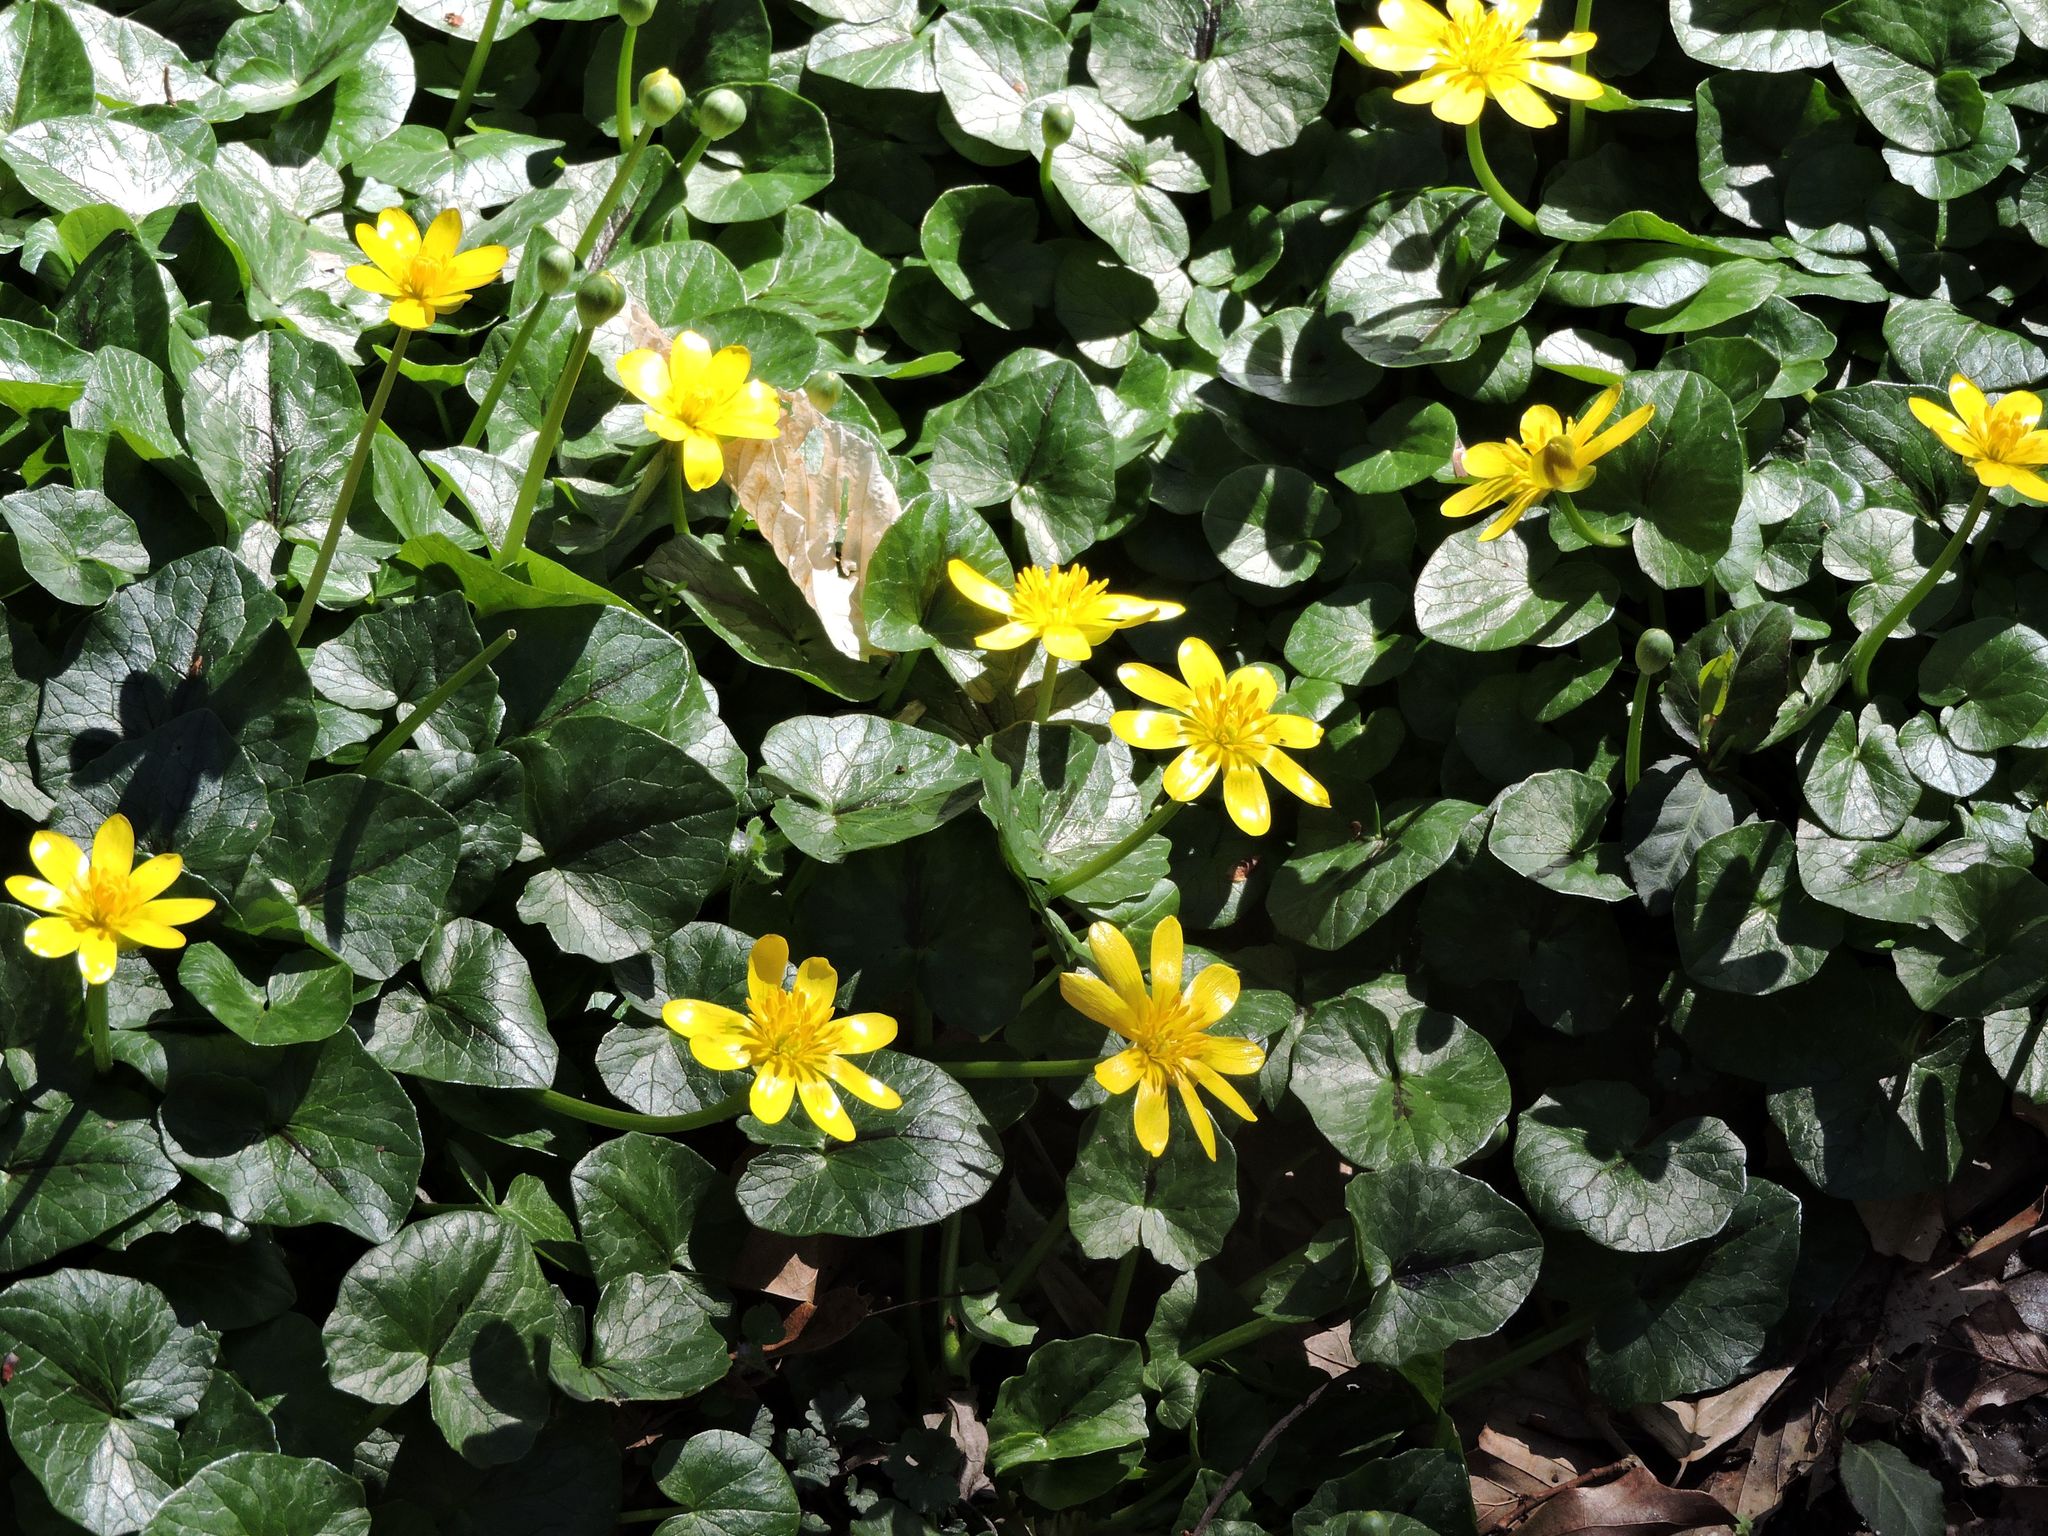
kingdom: Plantae
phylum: Tracheophyta
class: Magnoliopsida
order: Ranunculales
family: Ranunculaceae
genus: Ficaria
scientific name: Ficaria verna
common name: Lesser celandine
